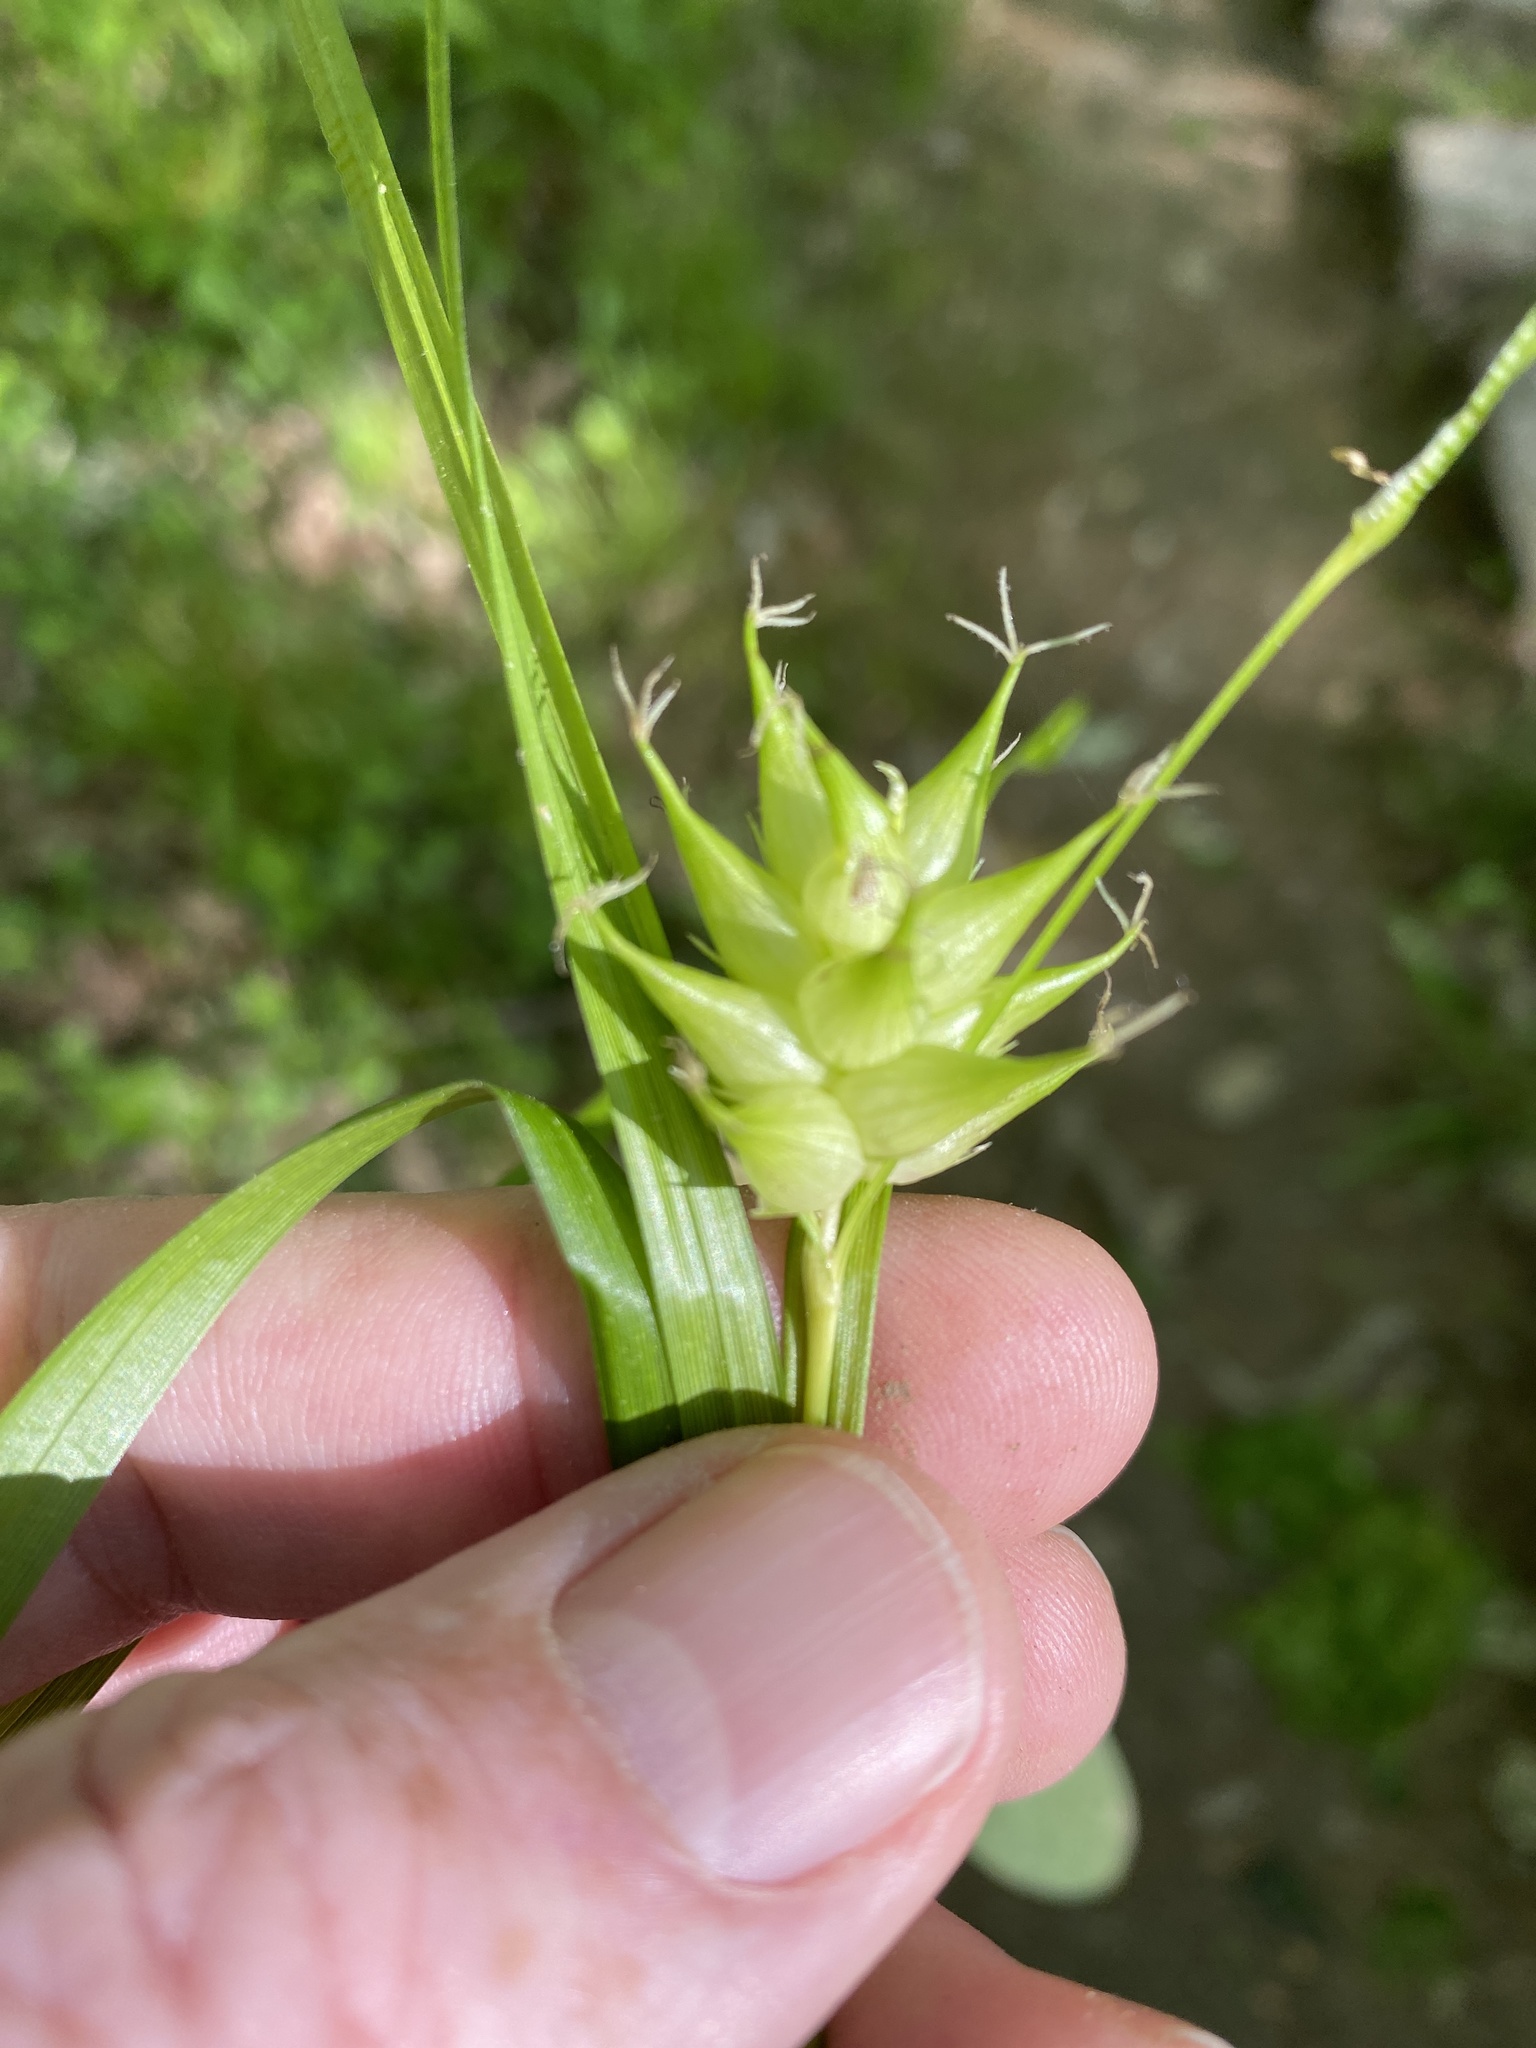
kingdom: Plantae
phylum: Tracheophyta
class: Liliopsida
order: Poales
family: Cyperaceae
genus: Carex
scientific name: Carex intumescens
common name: Greater bladder sedge
